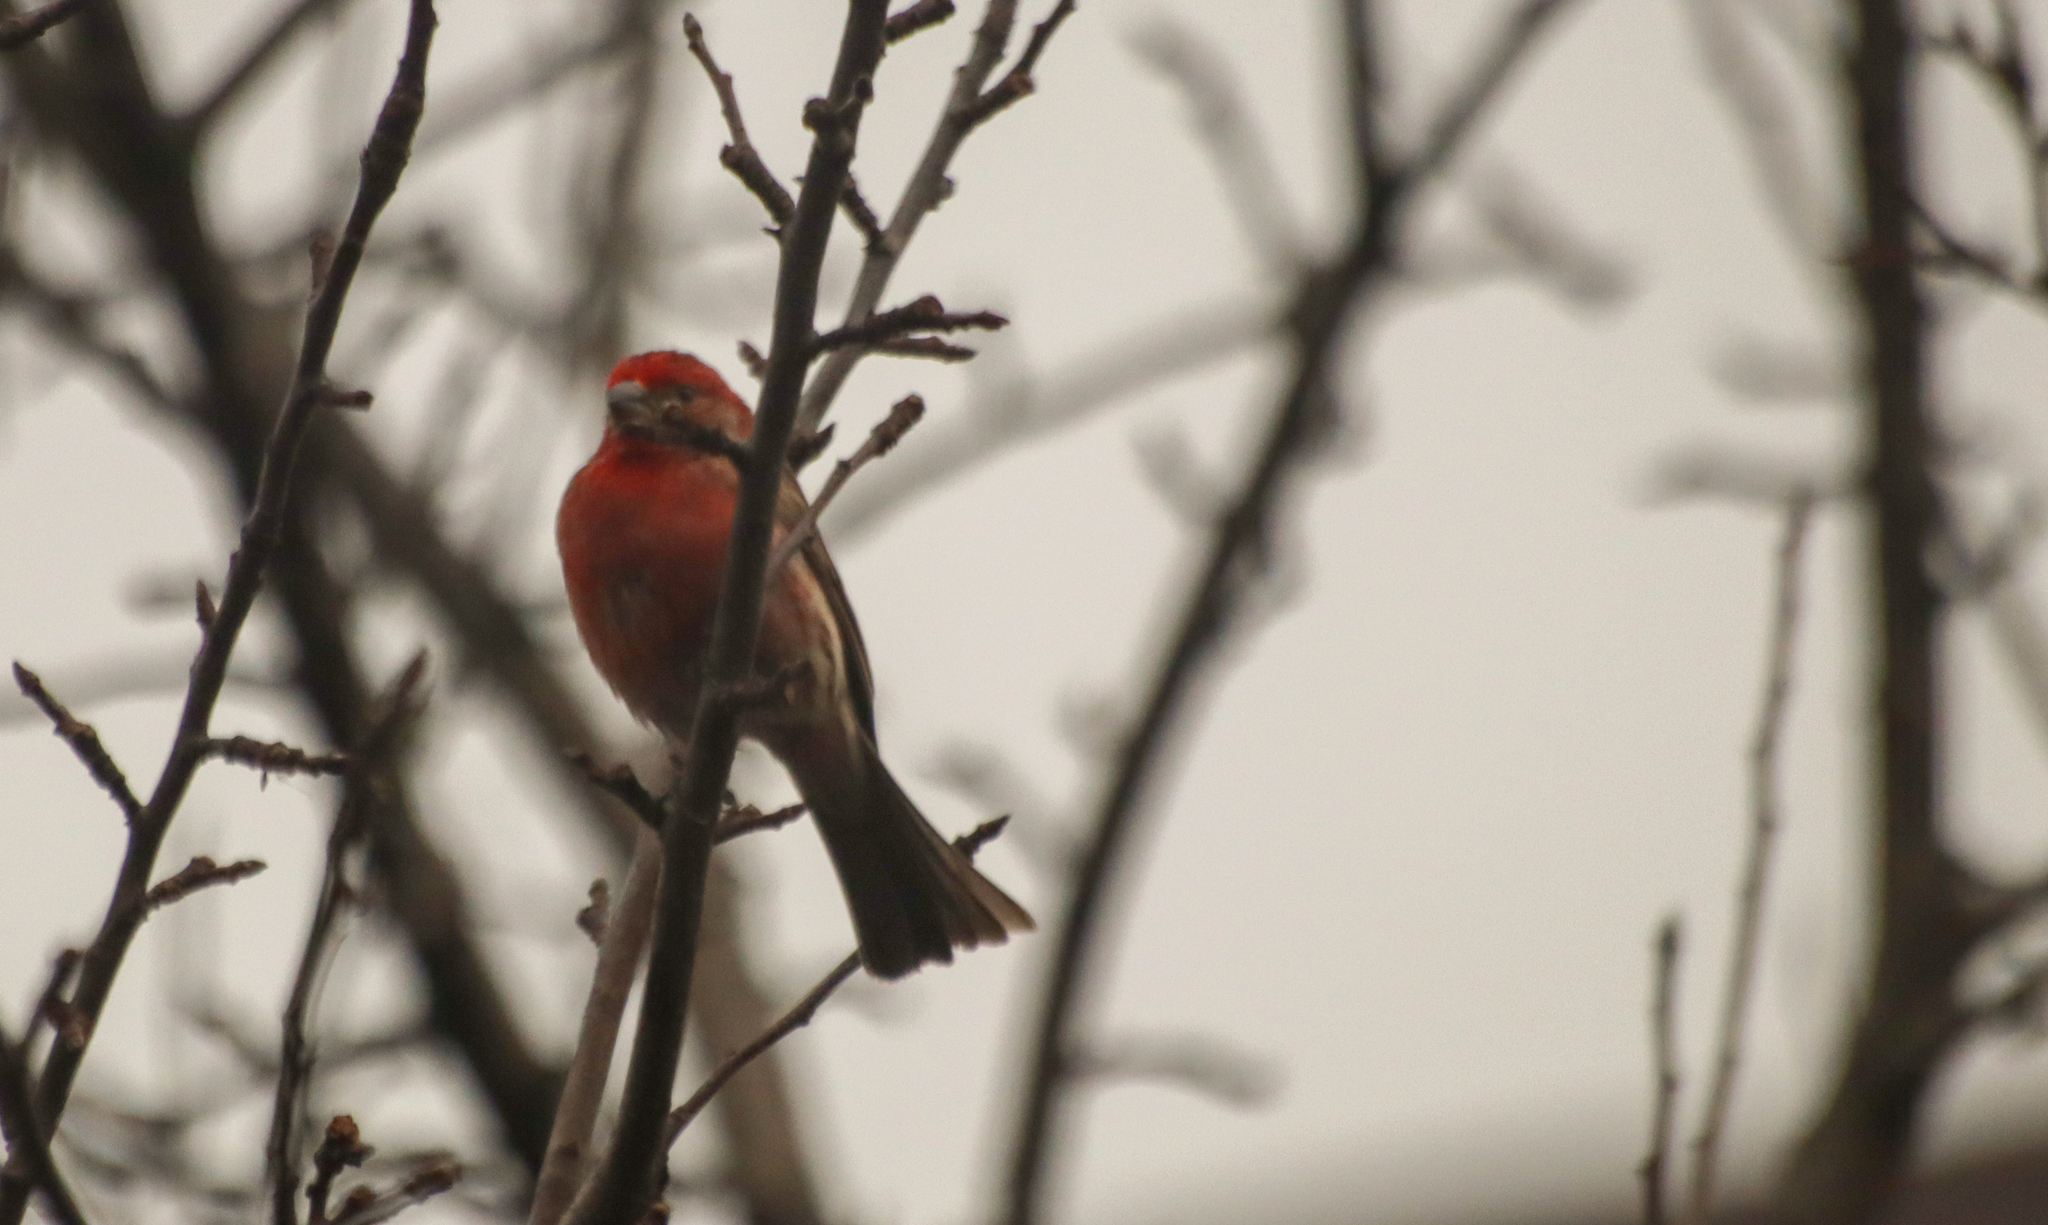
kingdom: Animalia
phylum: Chordata
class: Aves
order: Passeriformes
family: Fringillidae
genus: Haemorhous
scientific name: Haemorhous mexicanus
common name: House finch
